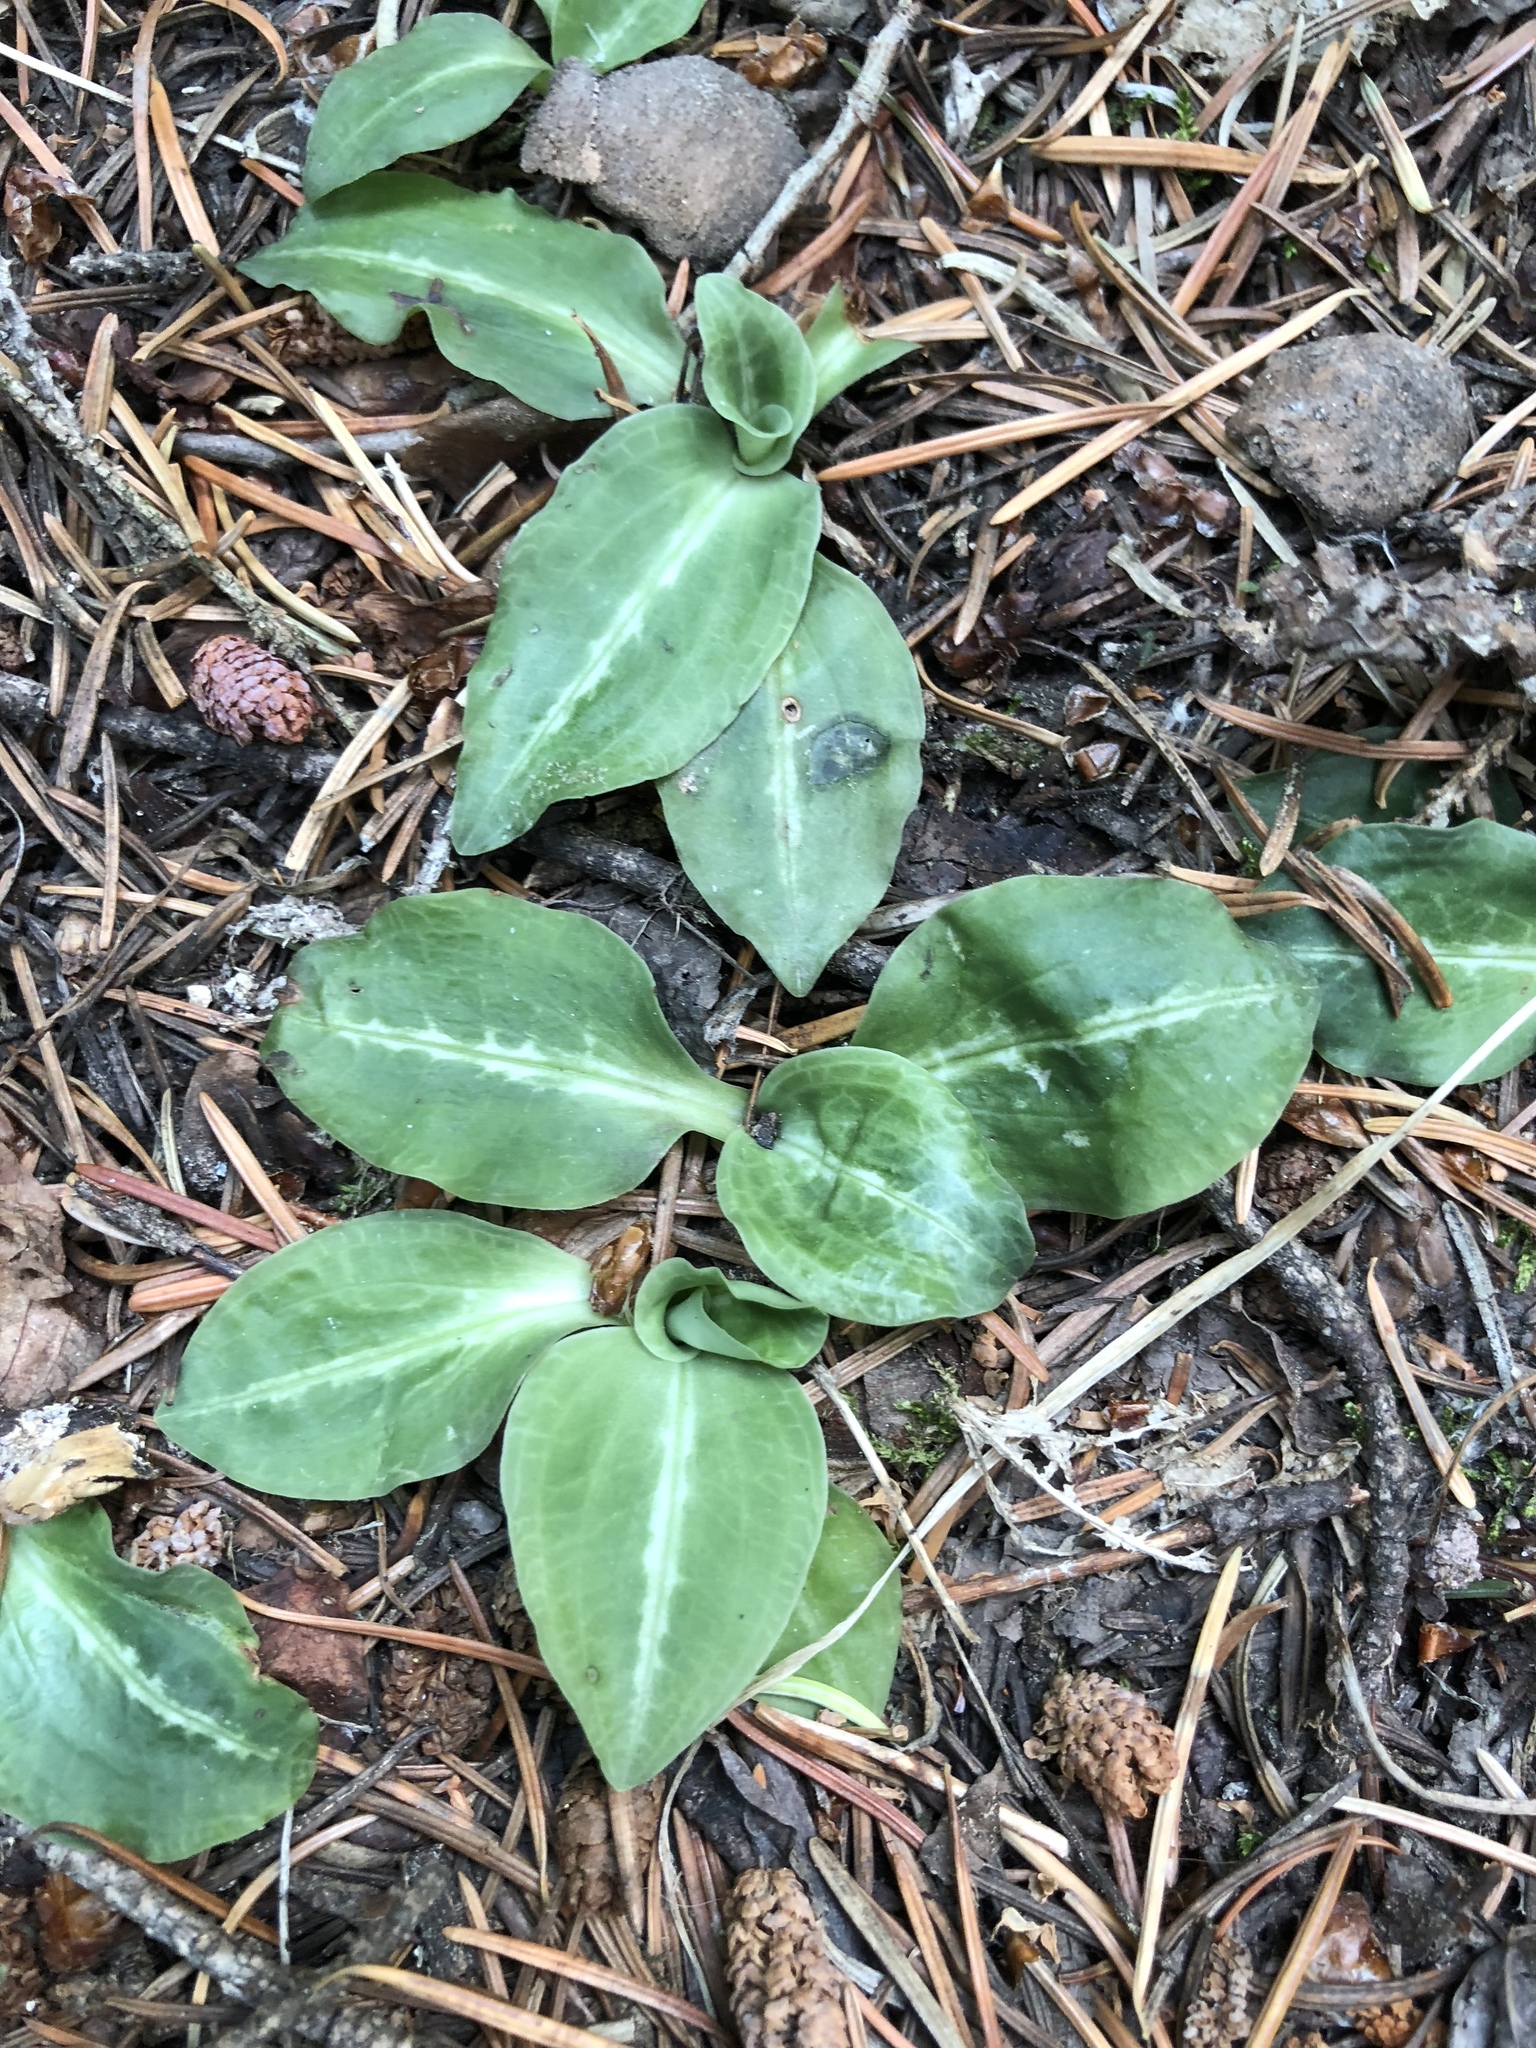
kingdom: Plantae
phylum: Tracheophyta
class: Liliopsida
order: Asparagales
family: Orchidaceae
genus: Goodyera
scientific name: Goodyera oblongifolia
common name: Giant rattlesnake-plantain
